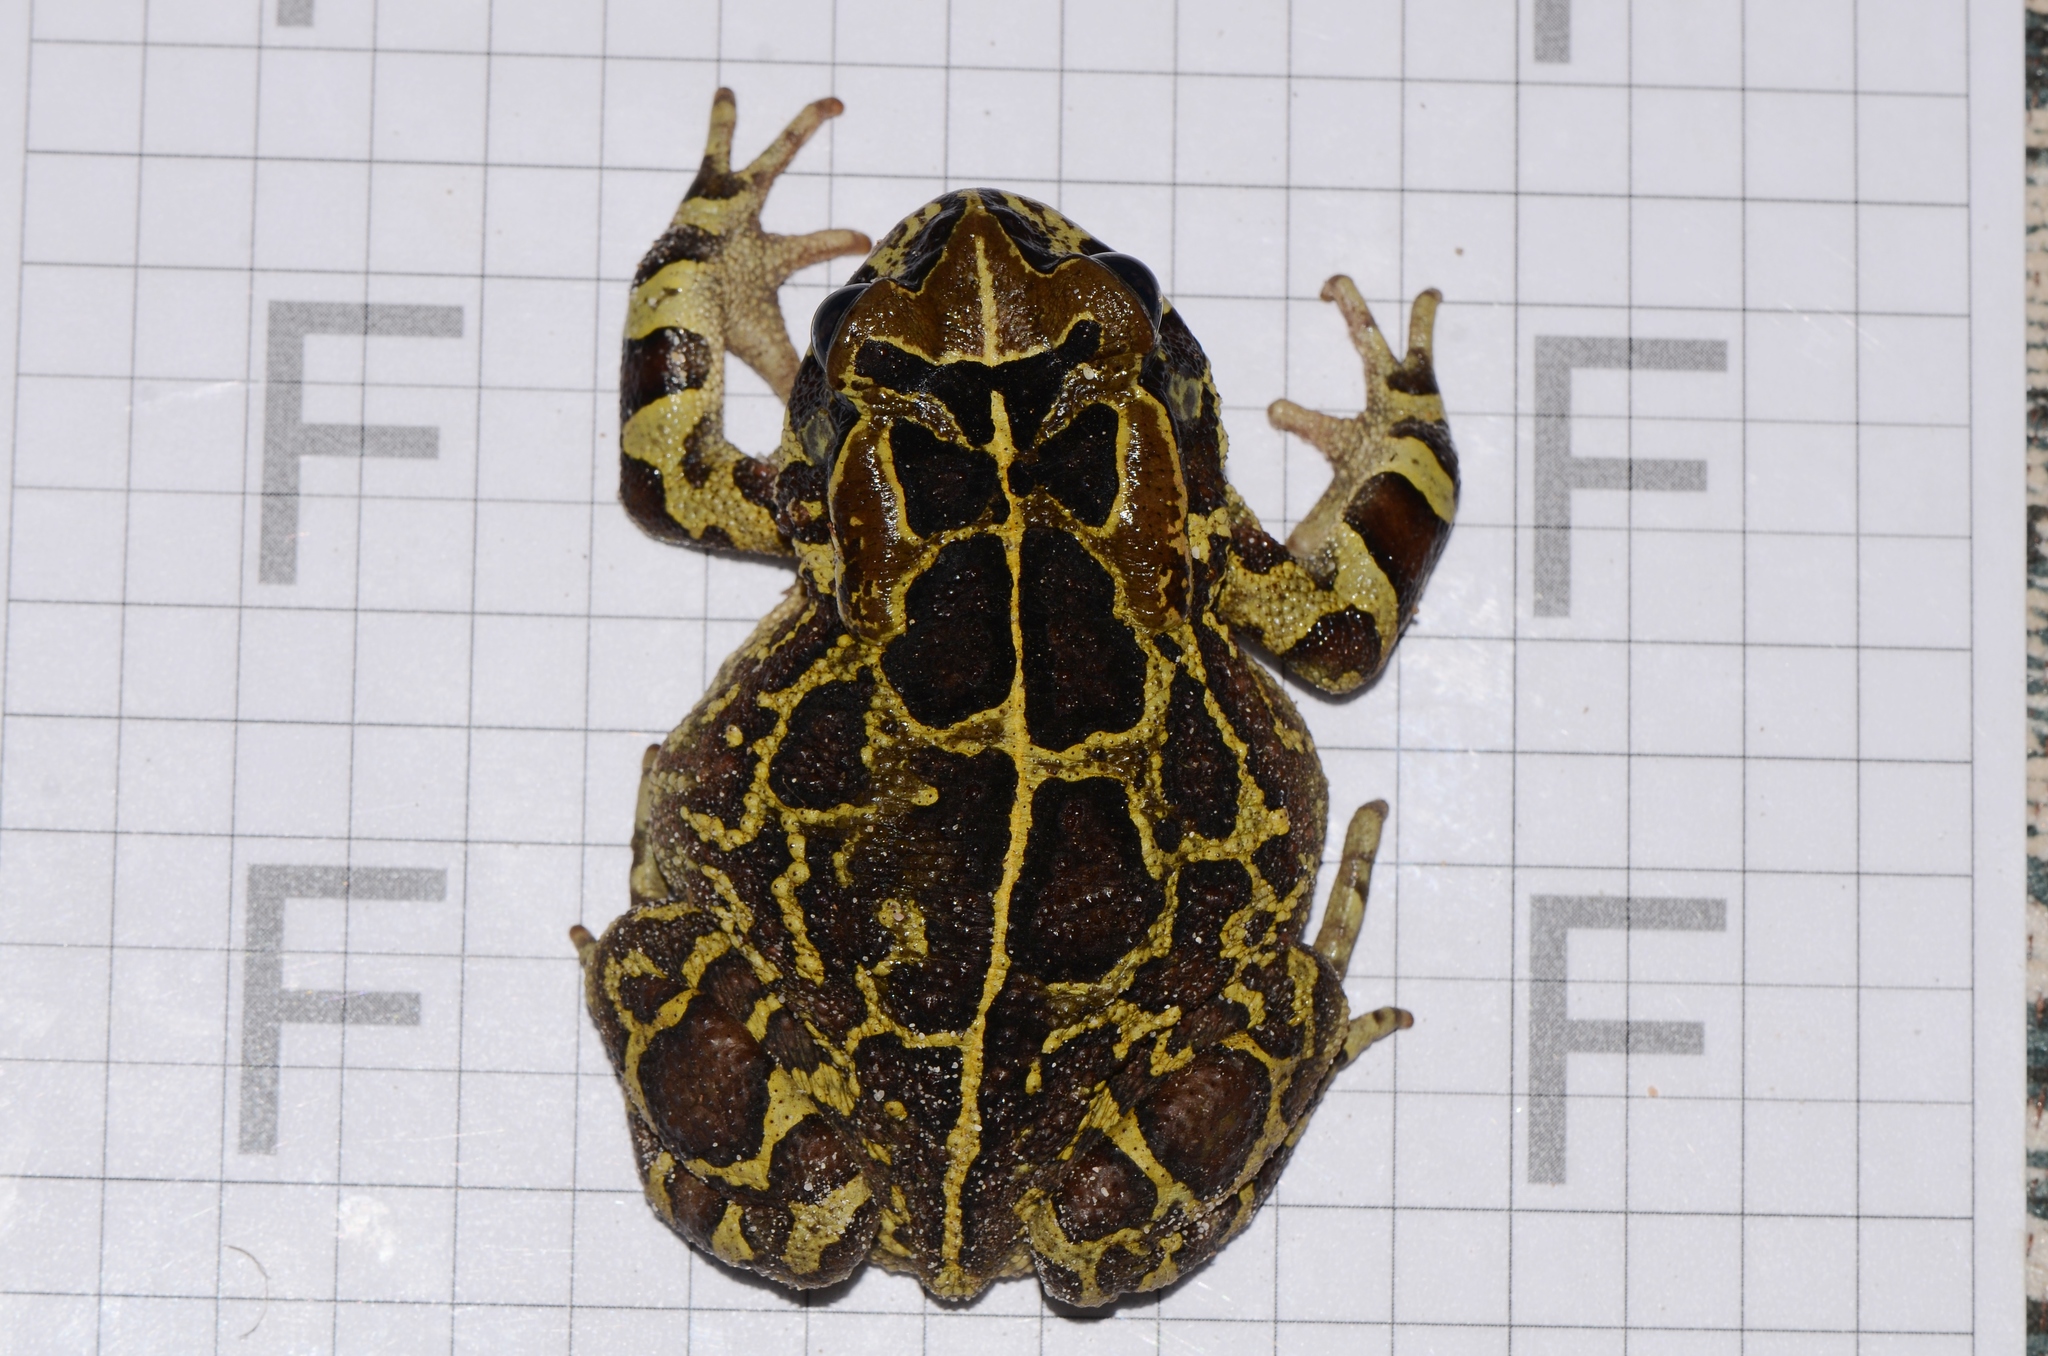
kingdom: Animalia
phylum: Chordata
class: Amphibia
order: Anura
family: Bufonidae
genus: Sclerophrys
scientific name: Sclerophrys pantherina
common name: Panther toad
